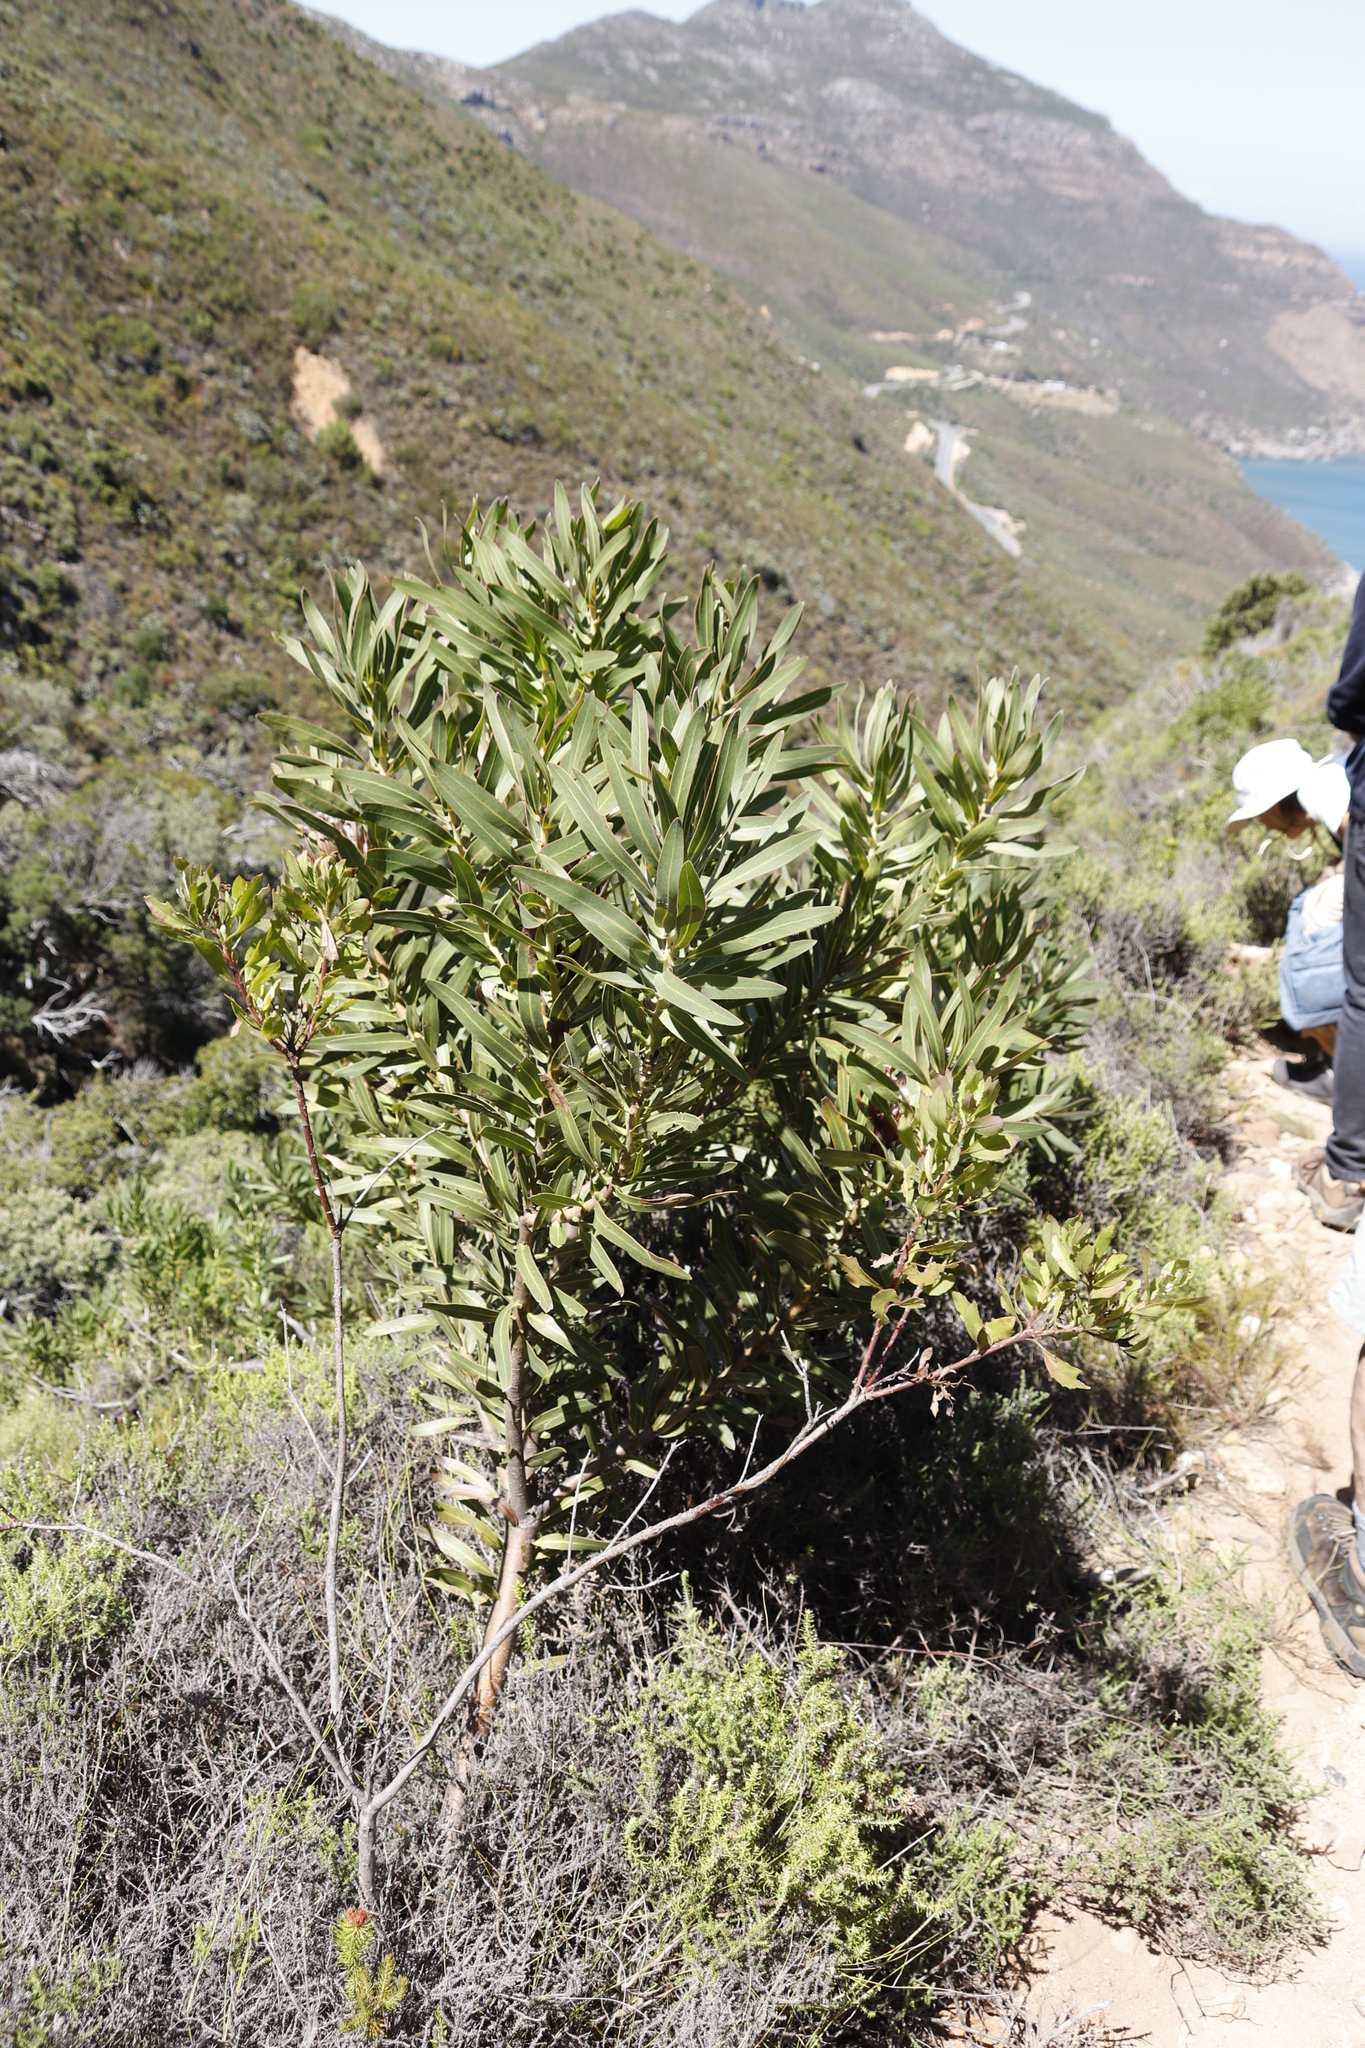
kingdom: Plantae
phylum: Tracheophyta
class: Magnoliopsida
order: Proteales
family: Proteaceae
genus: Protea
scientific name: Protea lepidocarpodendron
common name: Black-bearded protea
